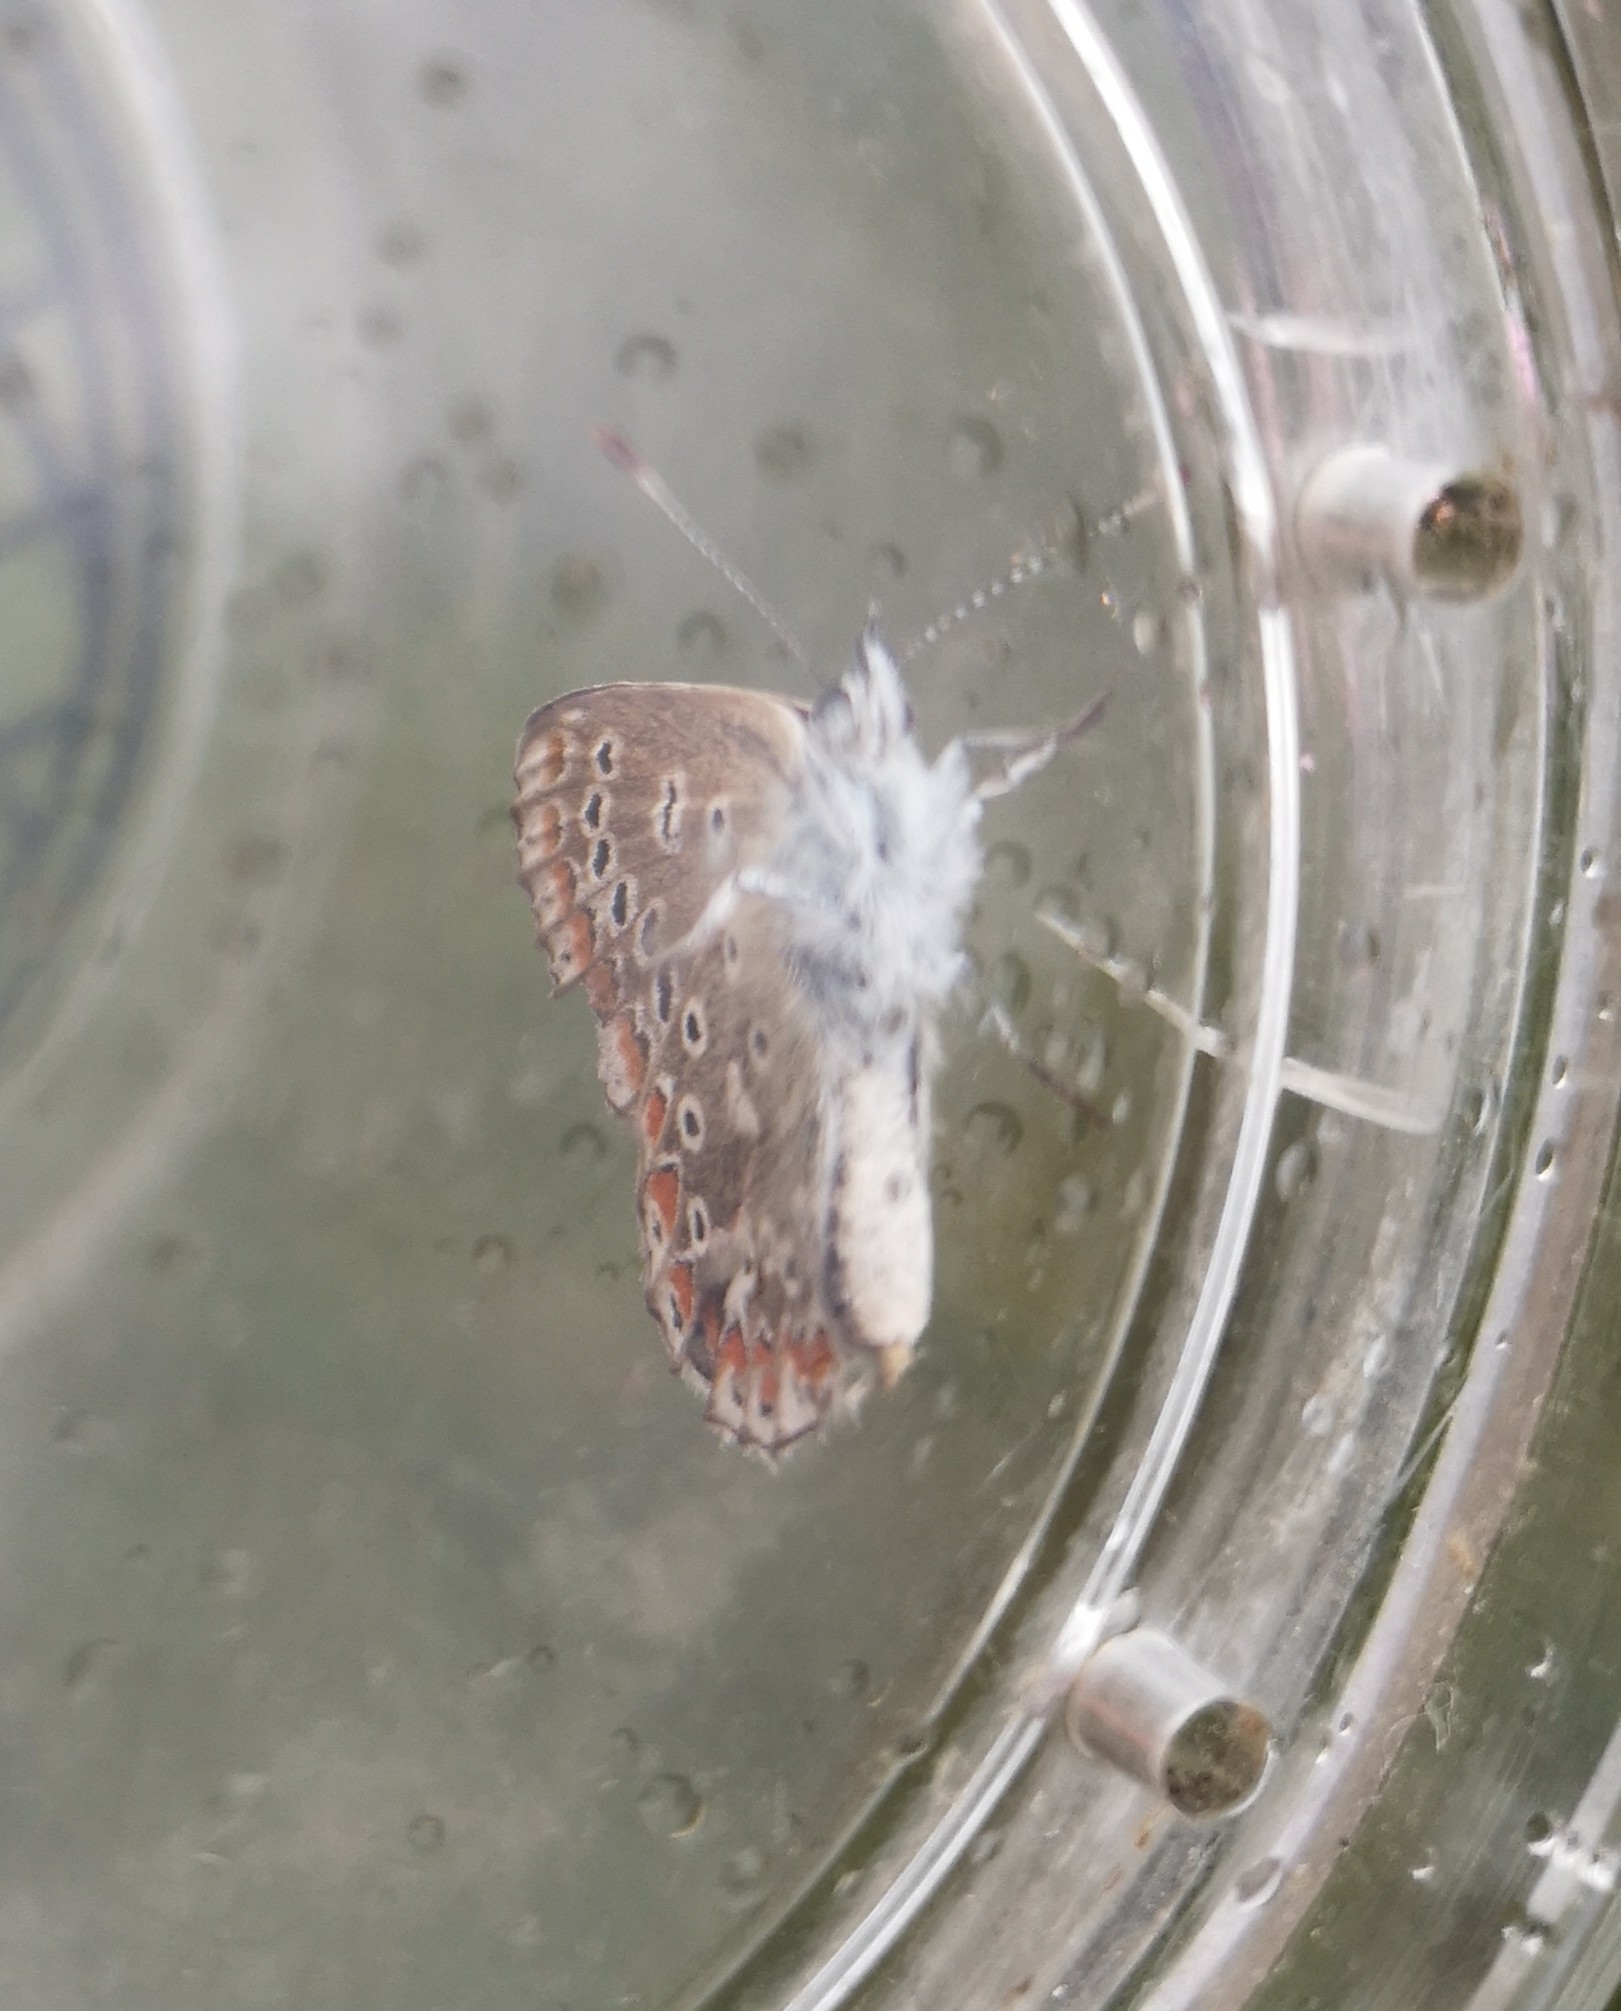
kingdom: Animalia
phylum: Arthropoda
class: Insecta
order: Lepidoptera
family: Lycaenidae
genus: Polyommatus
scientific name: Polyommatus icarus
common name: Common blue
